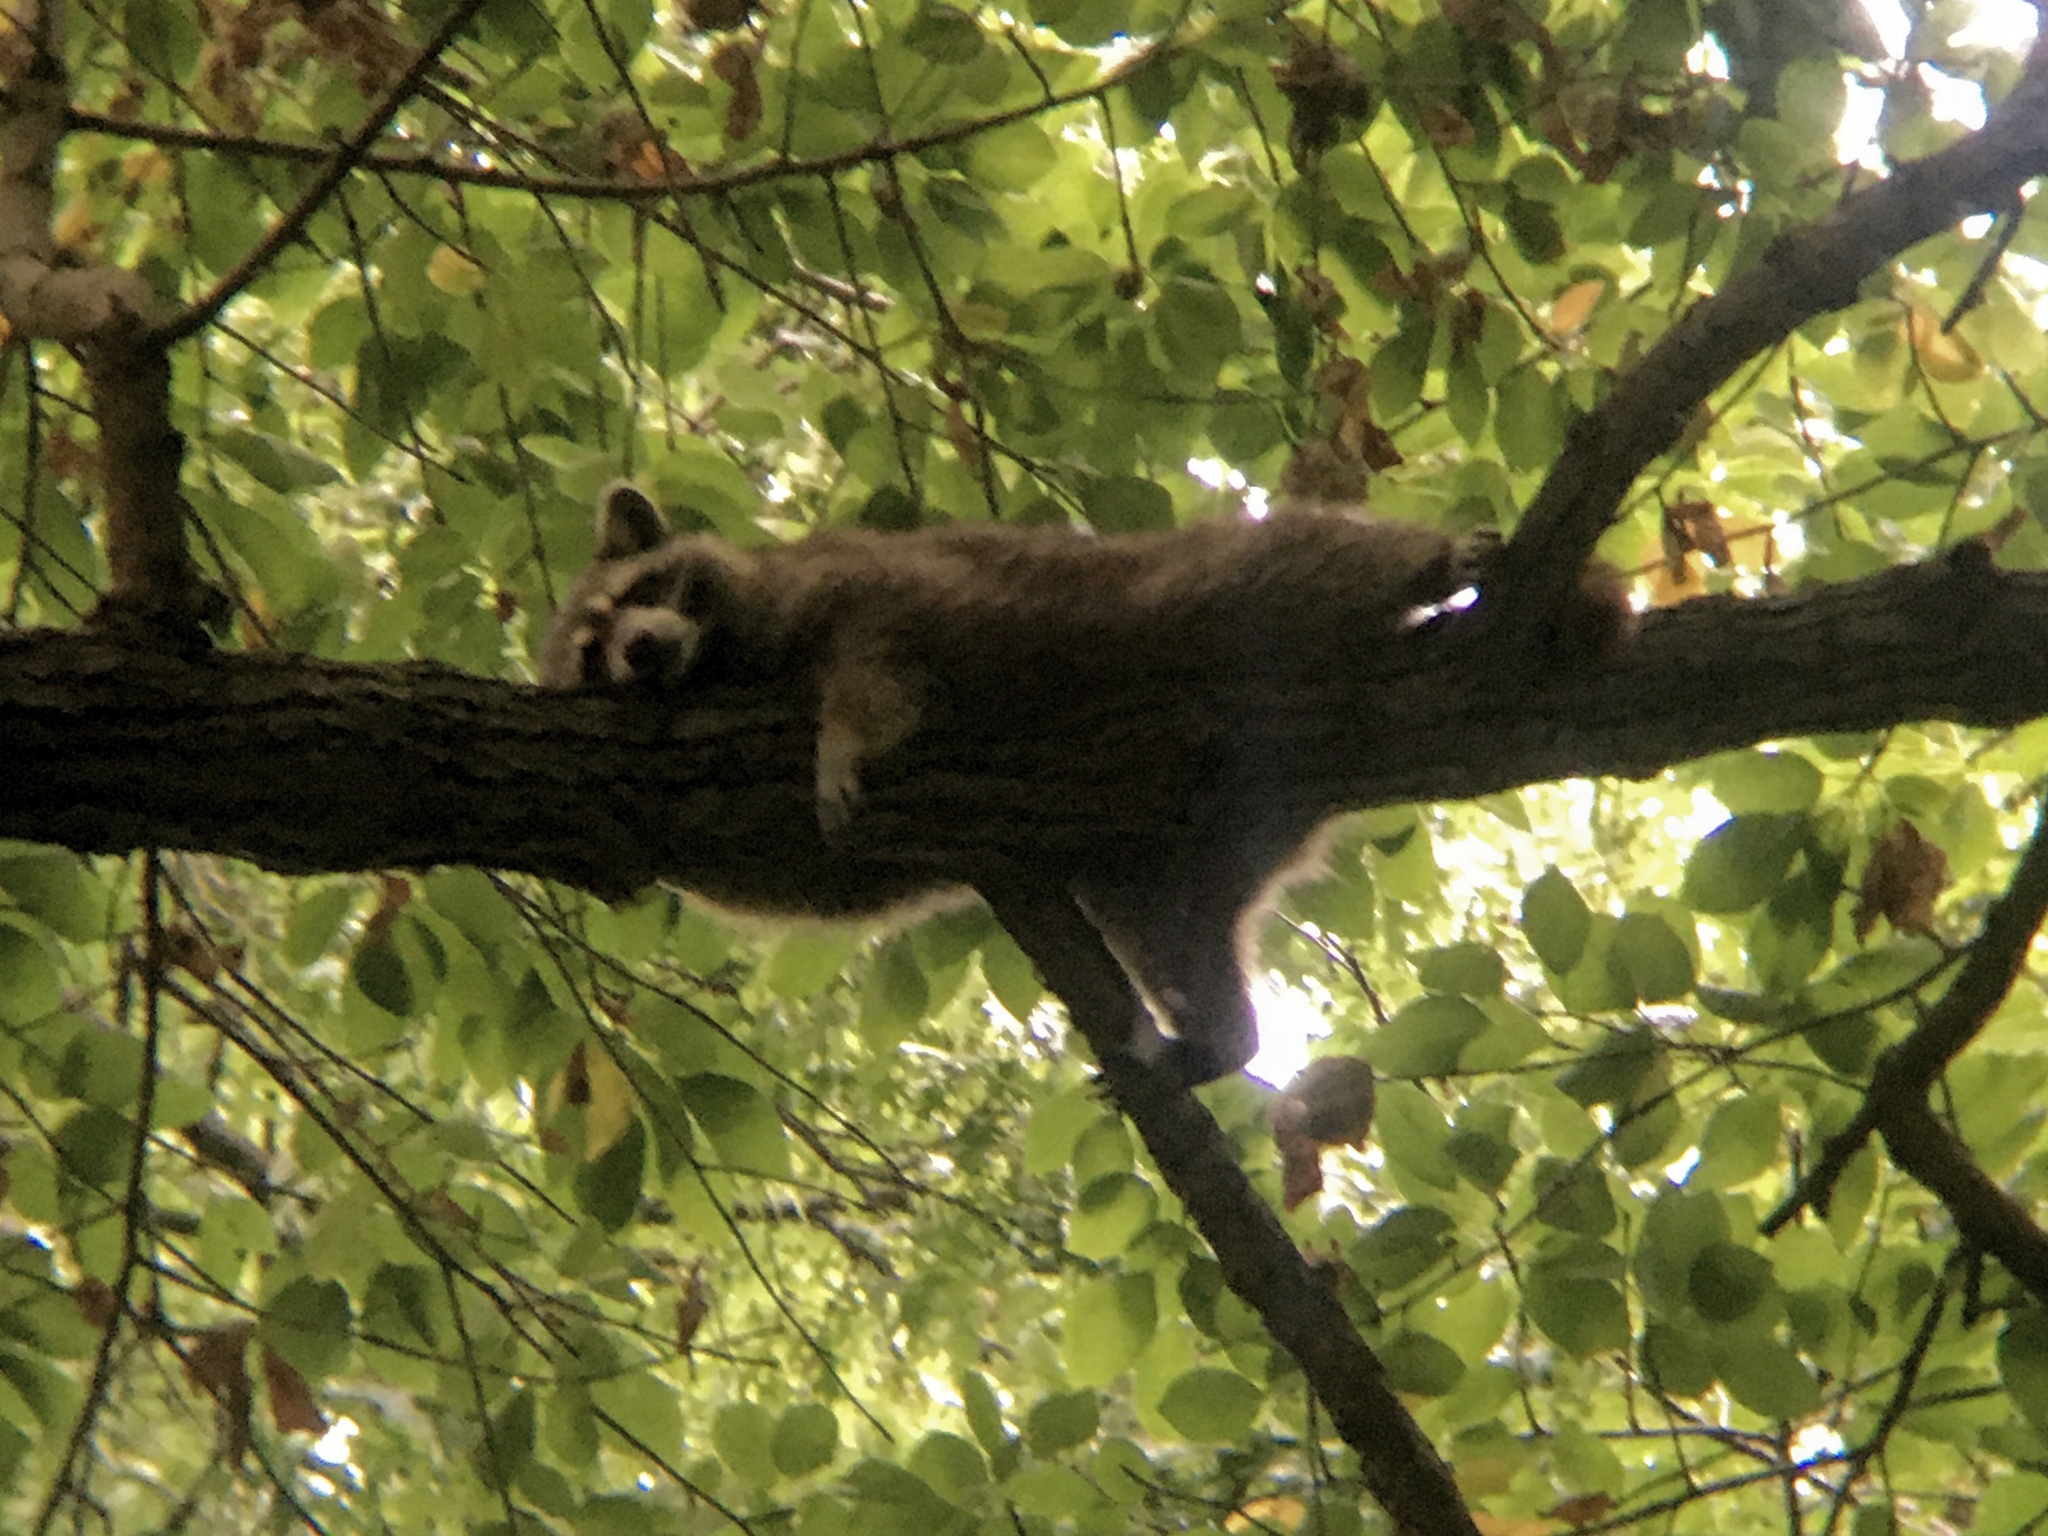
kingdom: Animalia
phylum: Chordata
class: Mammalia
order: Carnivora
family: Procyonidae
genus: Procyon
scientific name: Procyon lotor
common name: Raccoon
